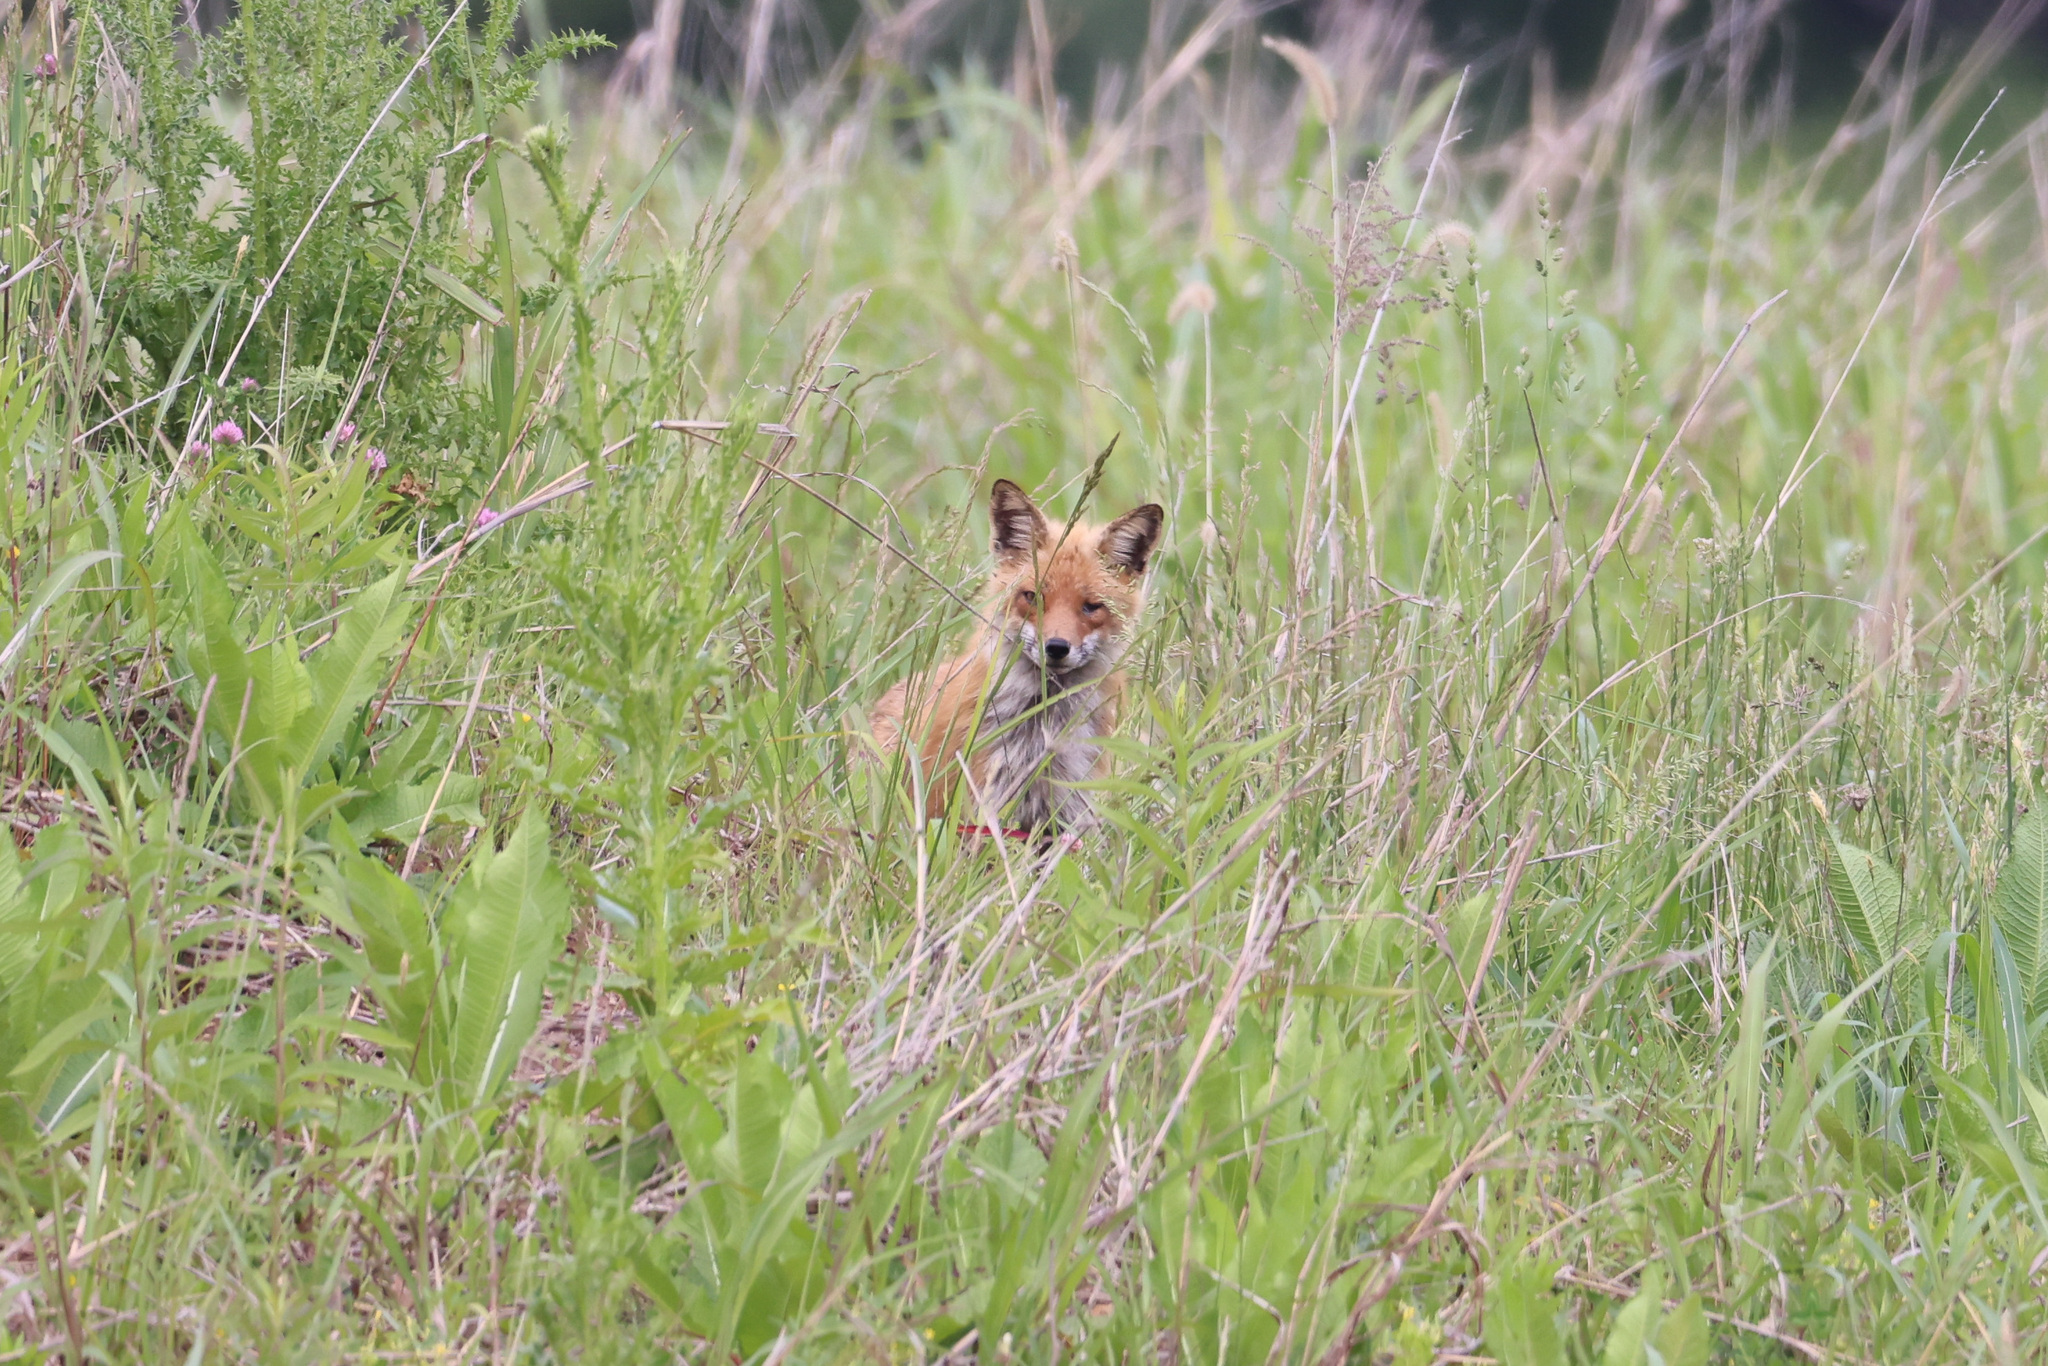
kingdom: Animalia
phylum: Chordata
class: Mammalia
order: Carnivora
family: Canidae
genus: Vulpes
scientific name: Vulpes vulpes
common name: Red fox
